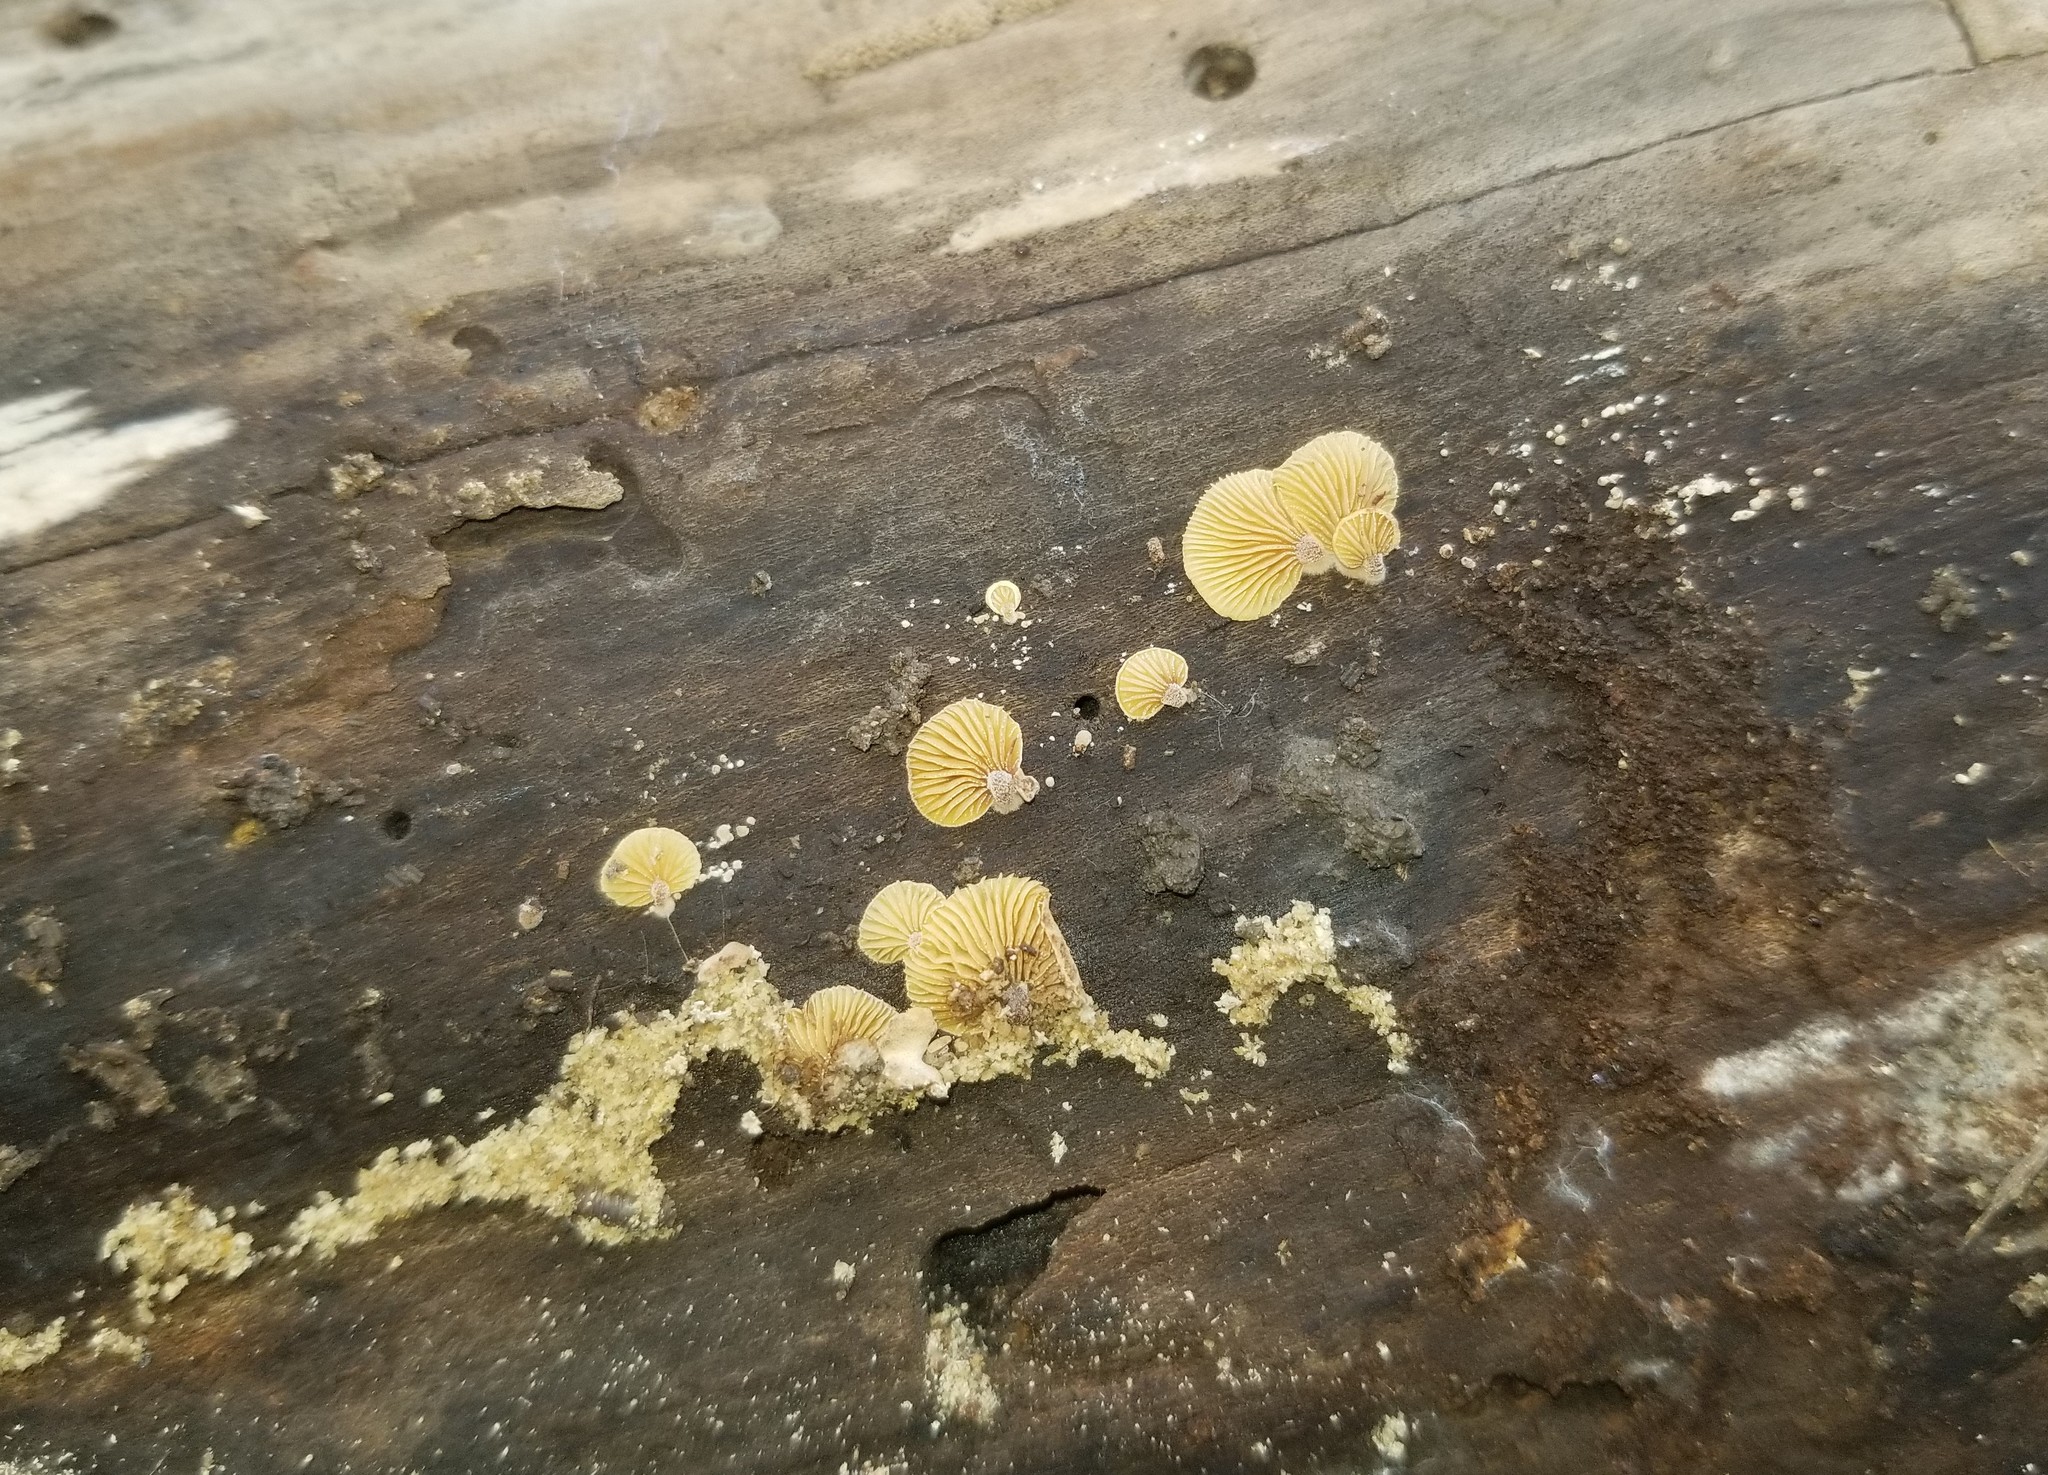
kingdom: Fungi
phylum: Basidiomycota
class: Agaricomycetes
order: Agaricales
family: Tubariaceae
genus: Pleuromyces
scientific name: Pleuromyces hungaricus
